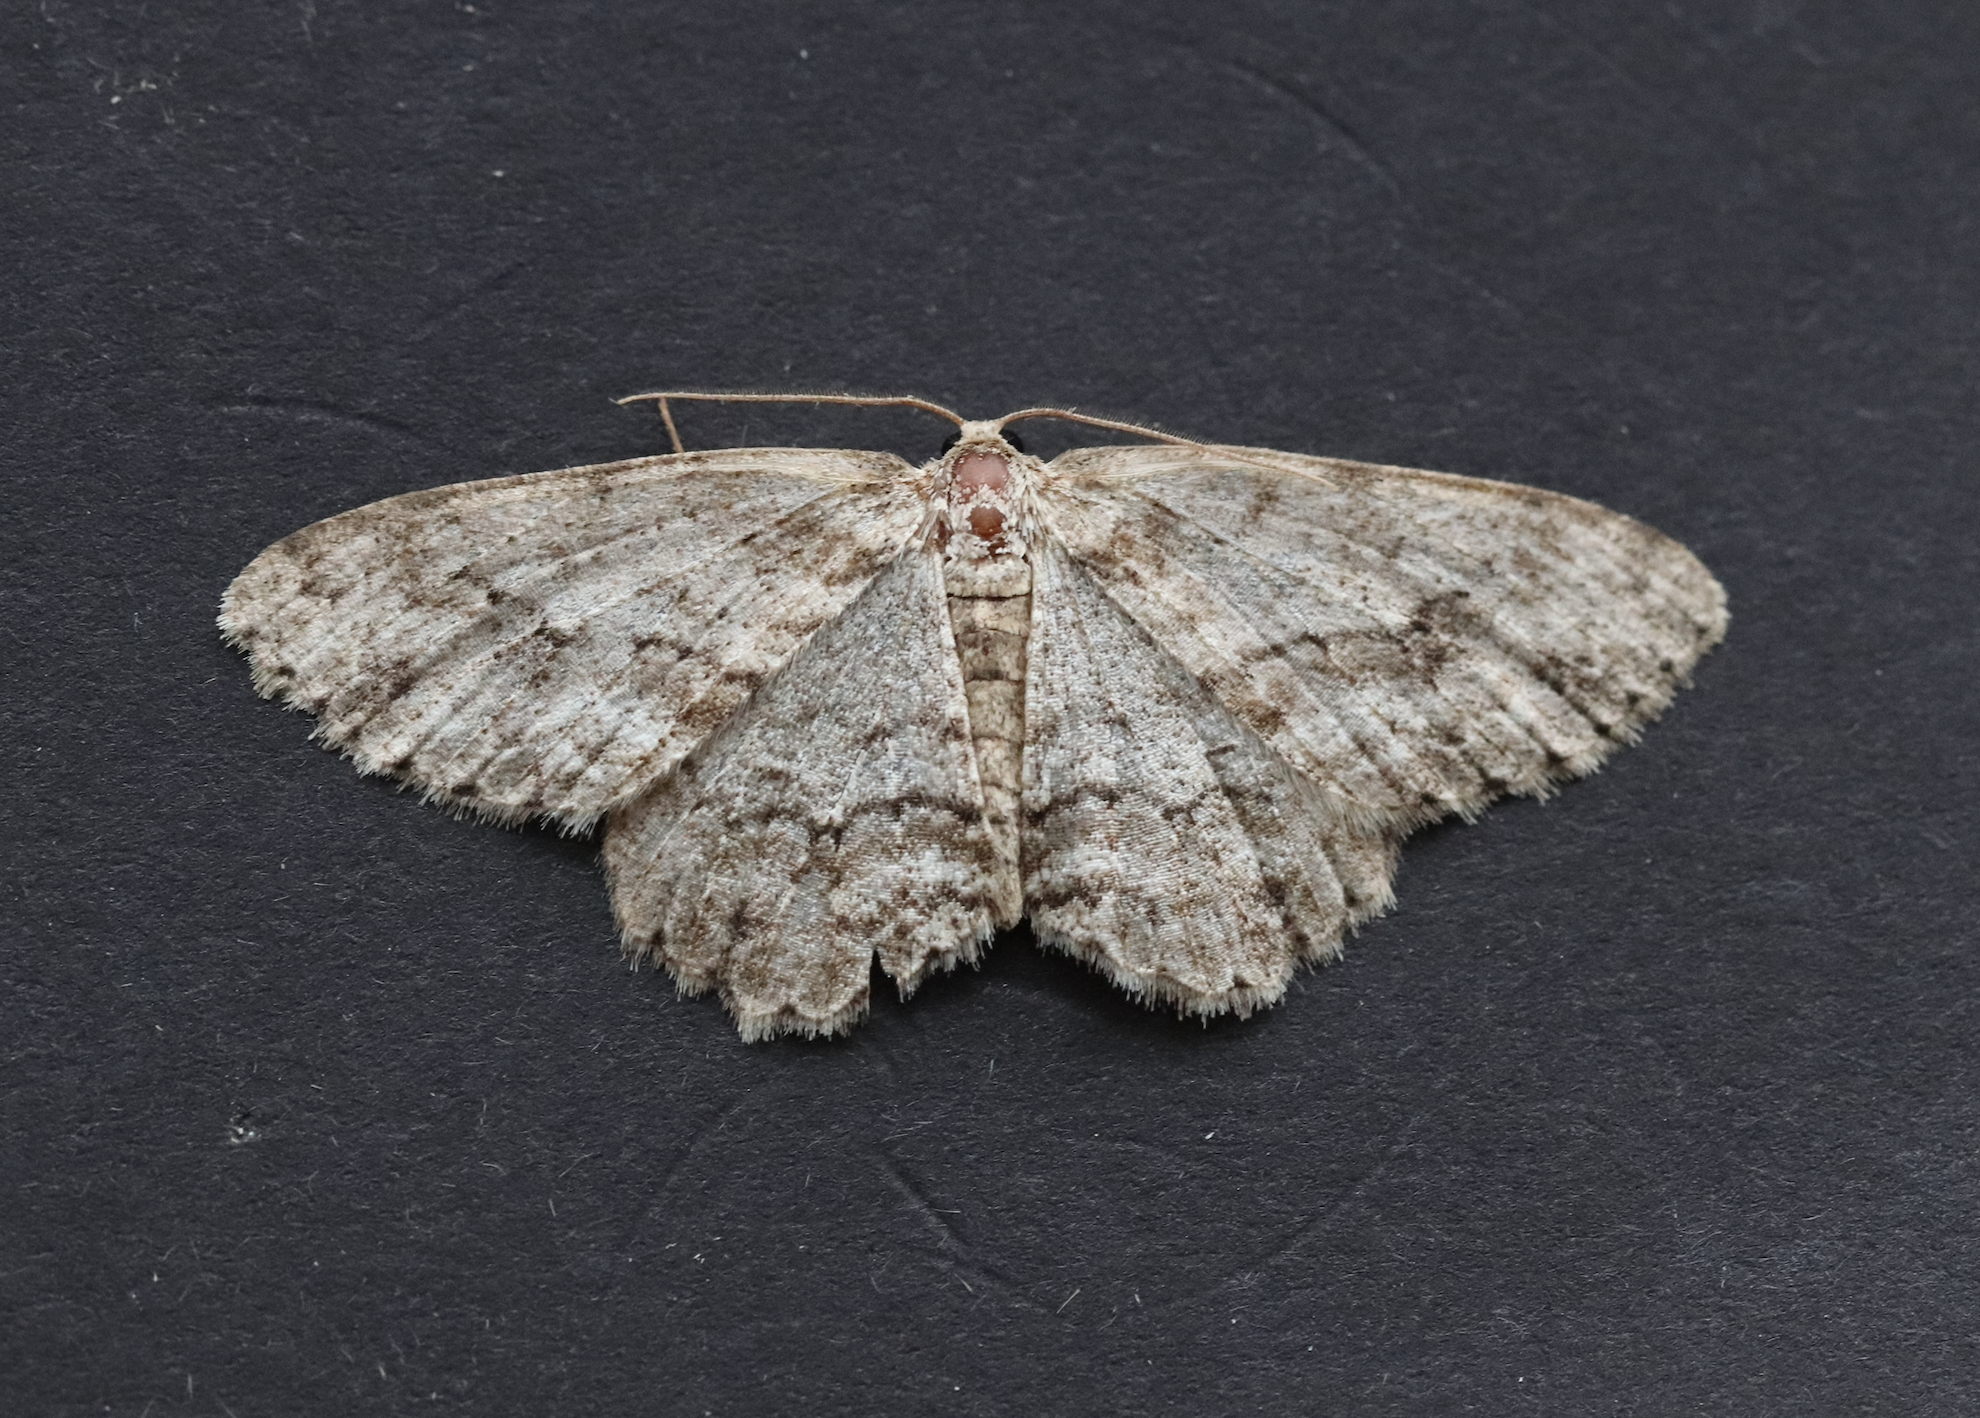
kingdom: Animalia
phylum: Arthropoda
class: Insecta
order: Lepidoptera
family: Geometridae
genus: Ectropis
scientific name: Ectropis crepuscularia
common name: Engrailed
